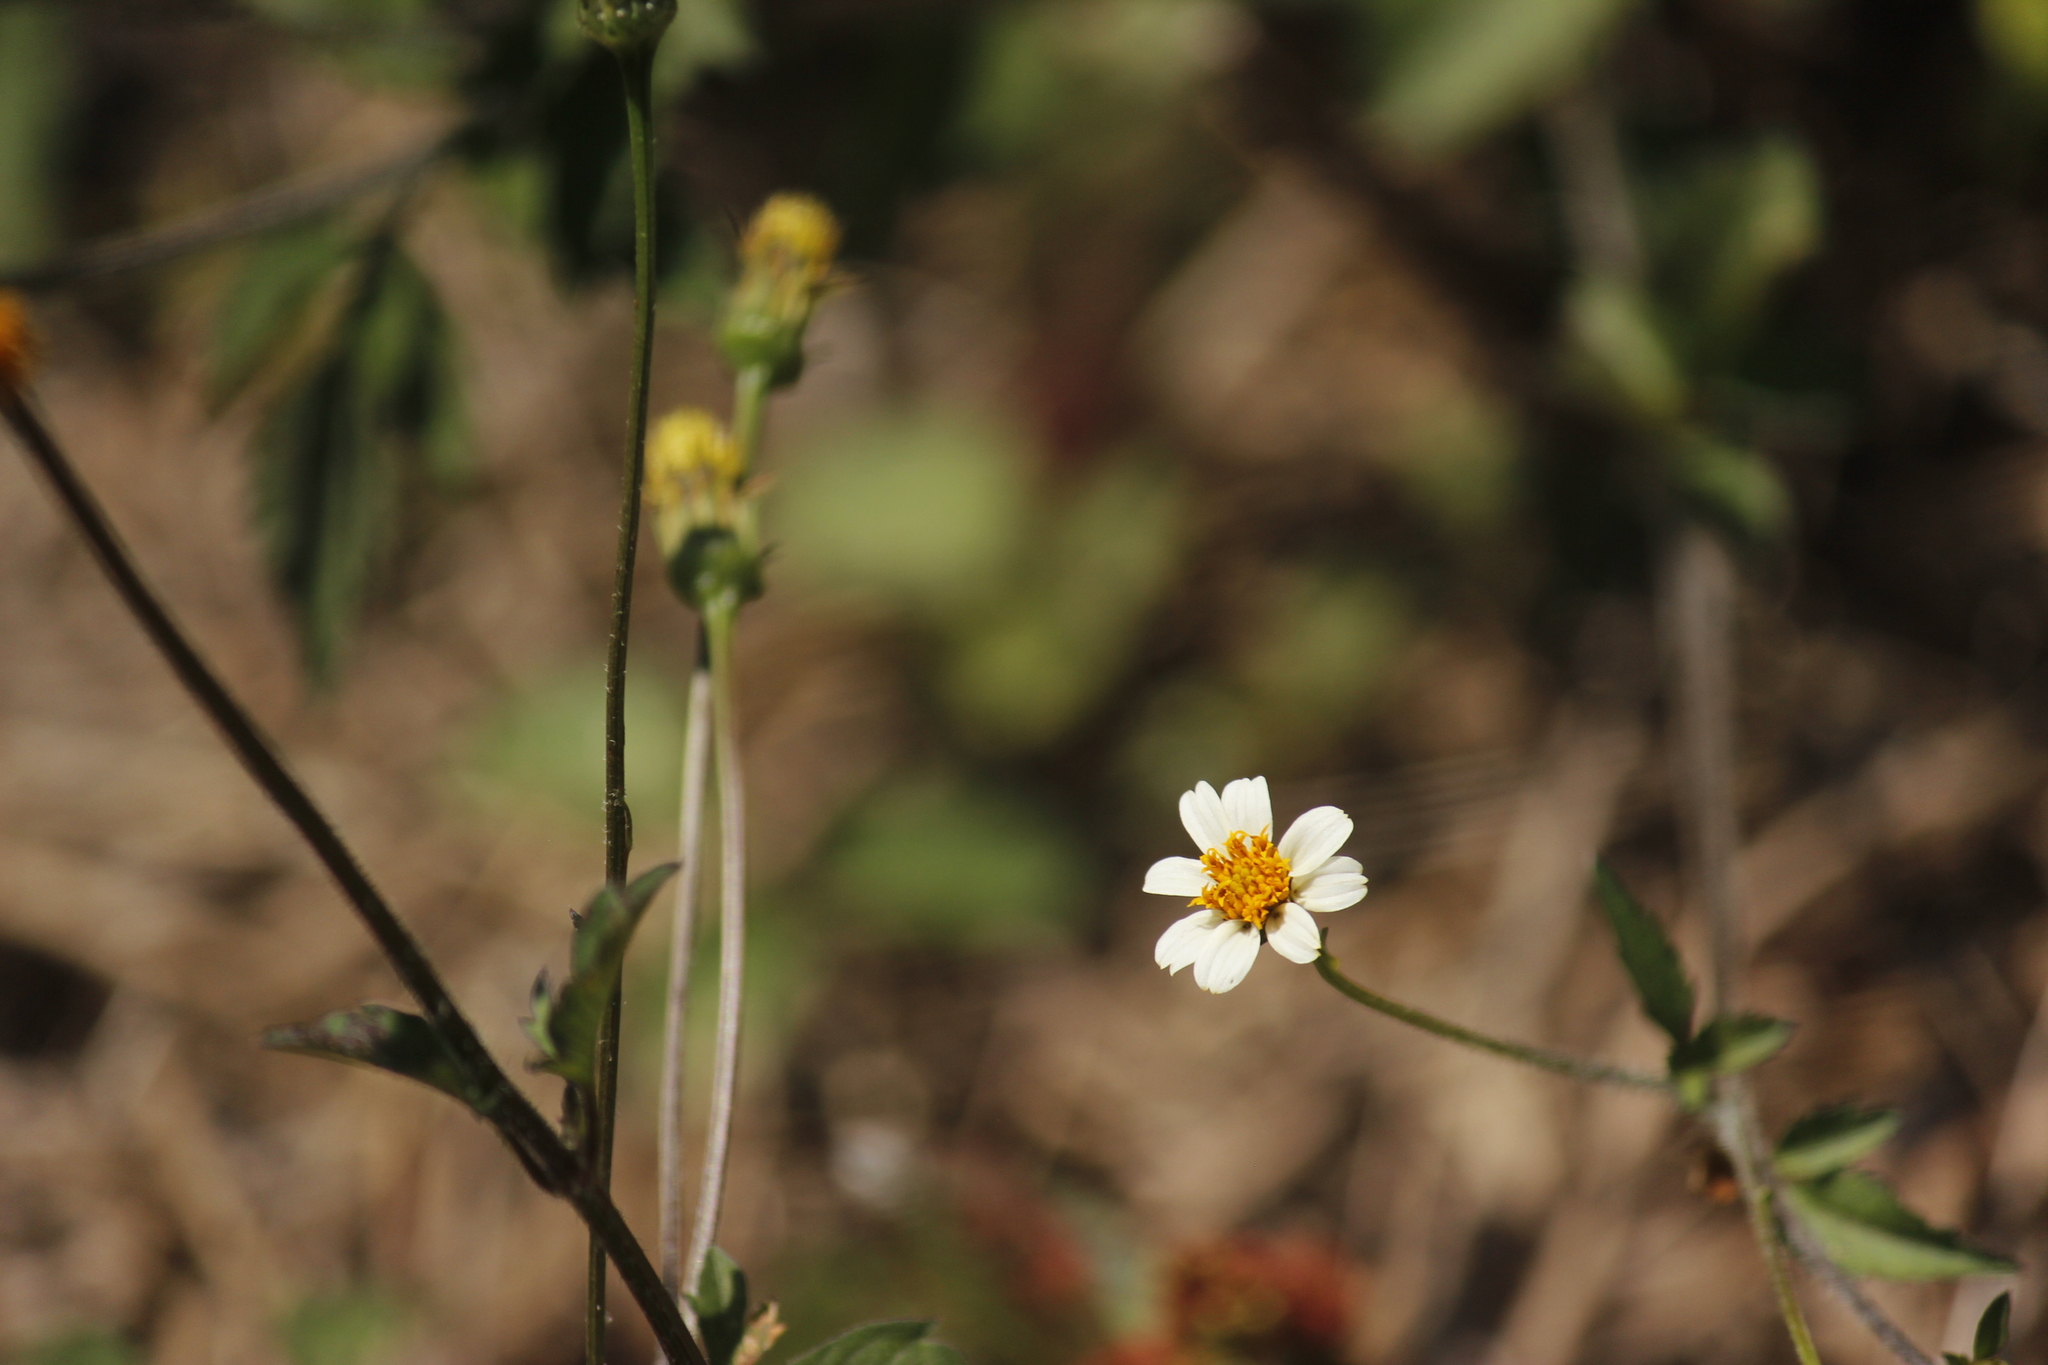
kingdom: Plantae
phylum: Tracheophyta
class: Magnoliopsida
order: Asterales
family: Asteraceae
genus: Bidens
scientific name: Bidens alba
